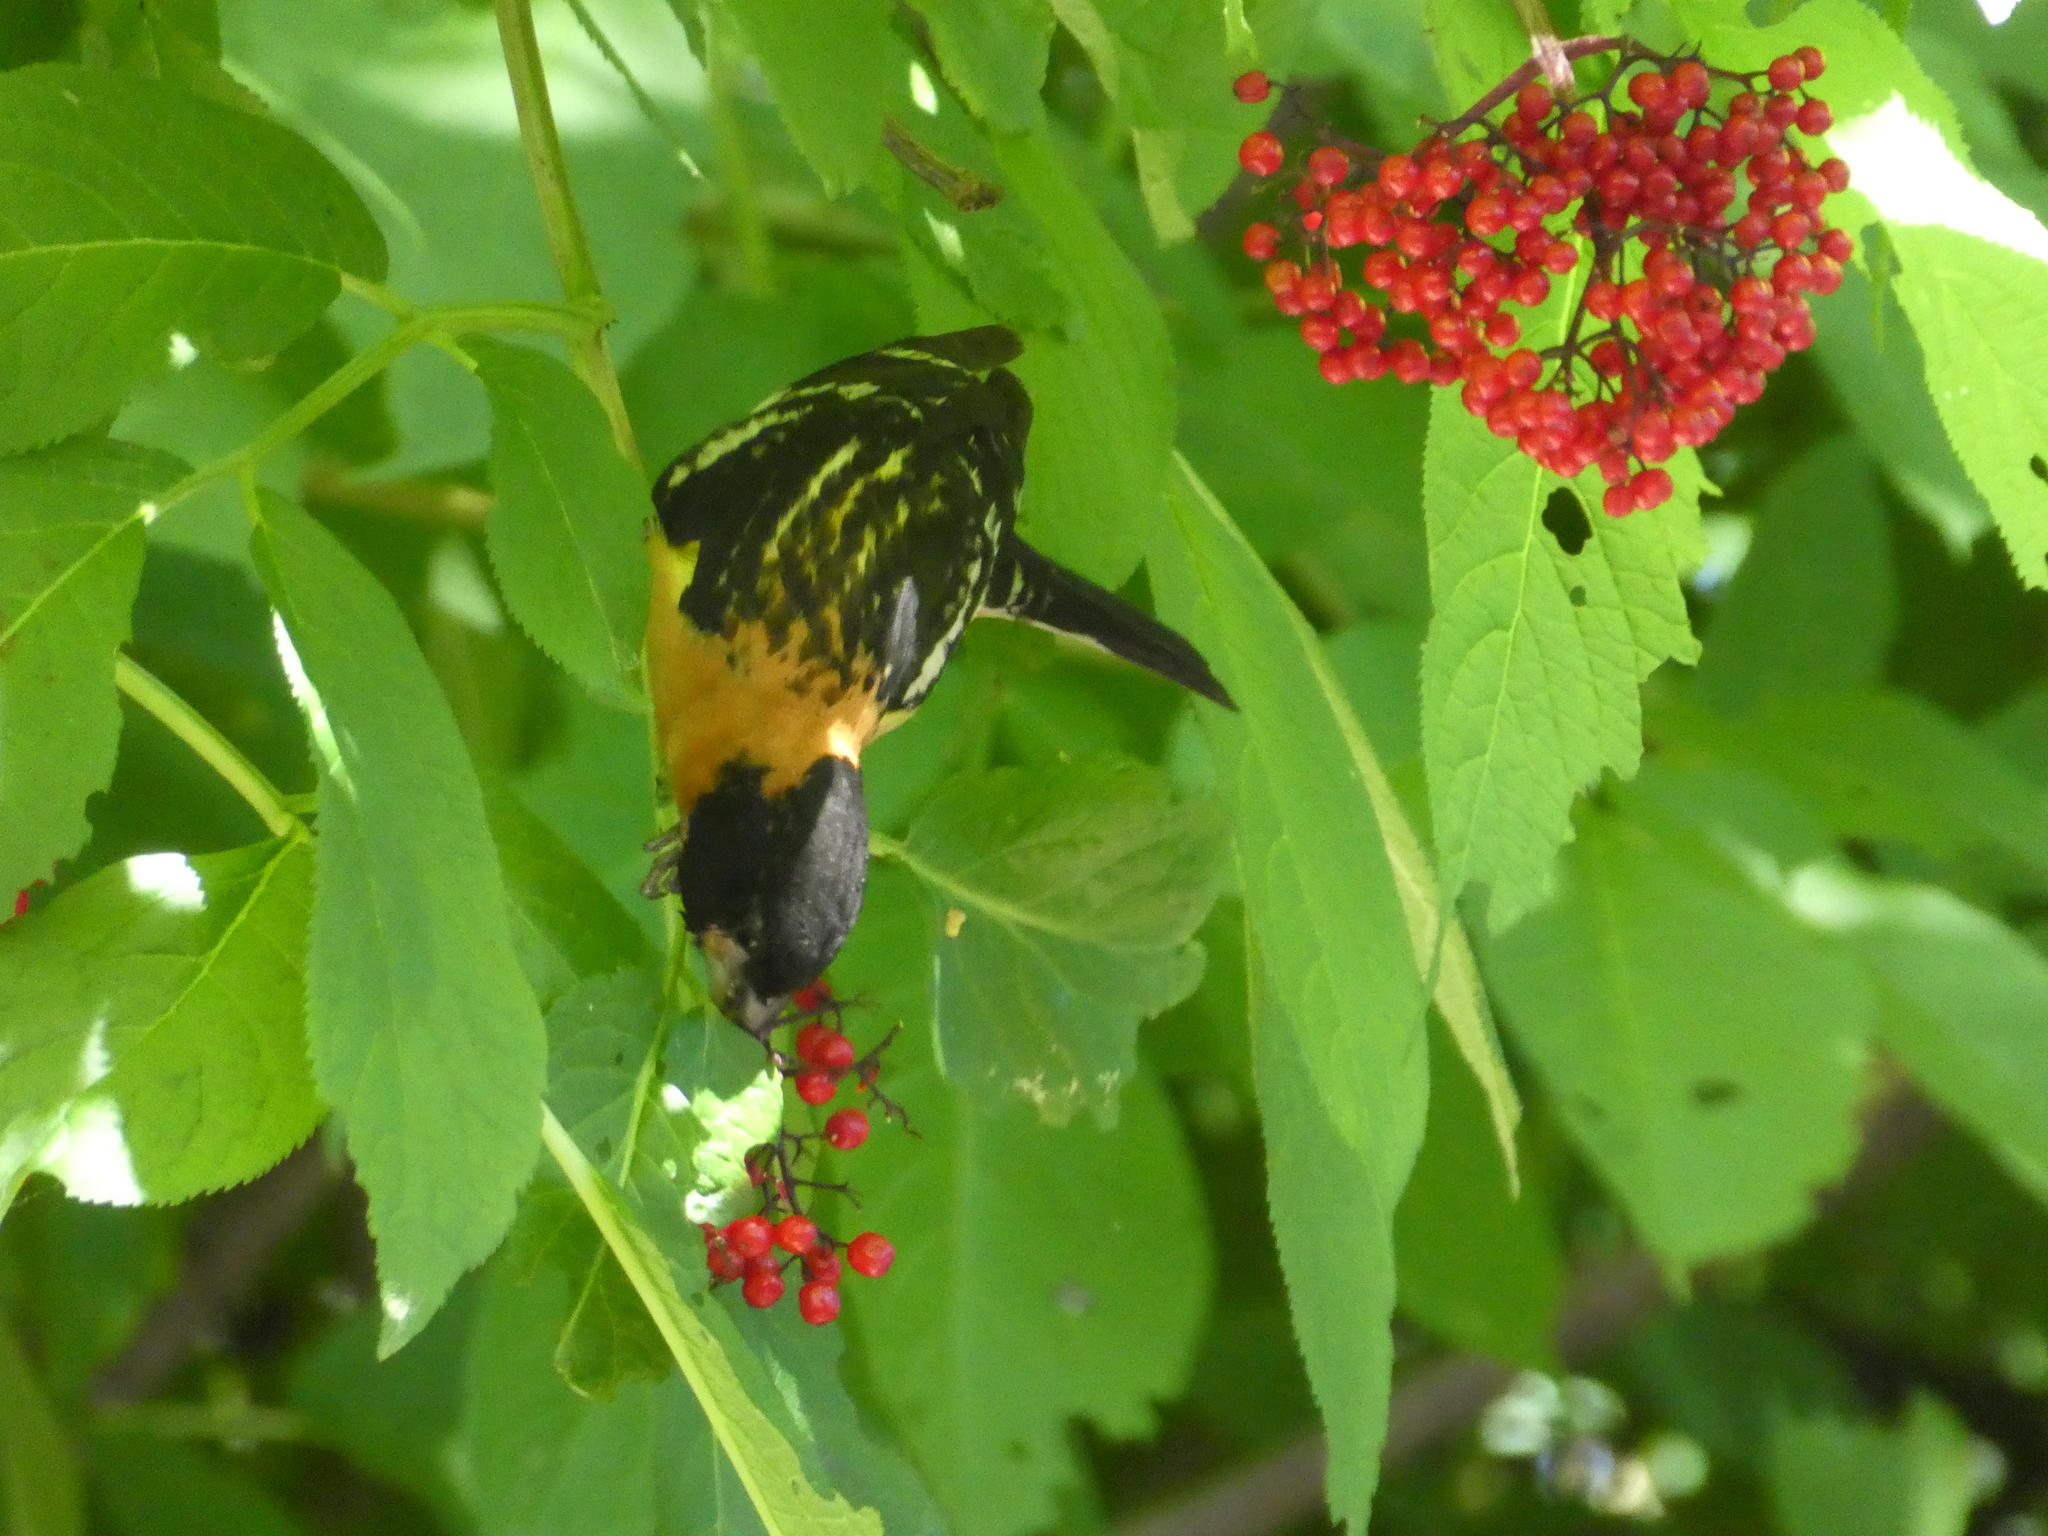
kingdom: Animalia
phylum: Chordata
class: Aves
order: Passeriformes
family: Cardinalidae
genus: Pheucticus
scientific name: Pheucticus melanocephalus
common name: Black-headed grosbeak
